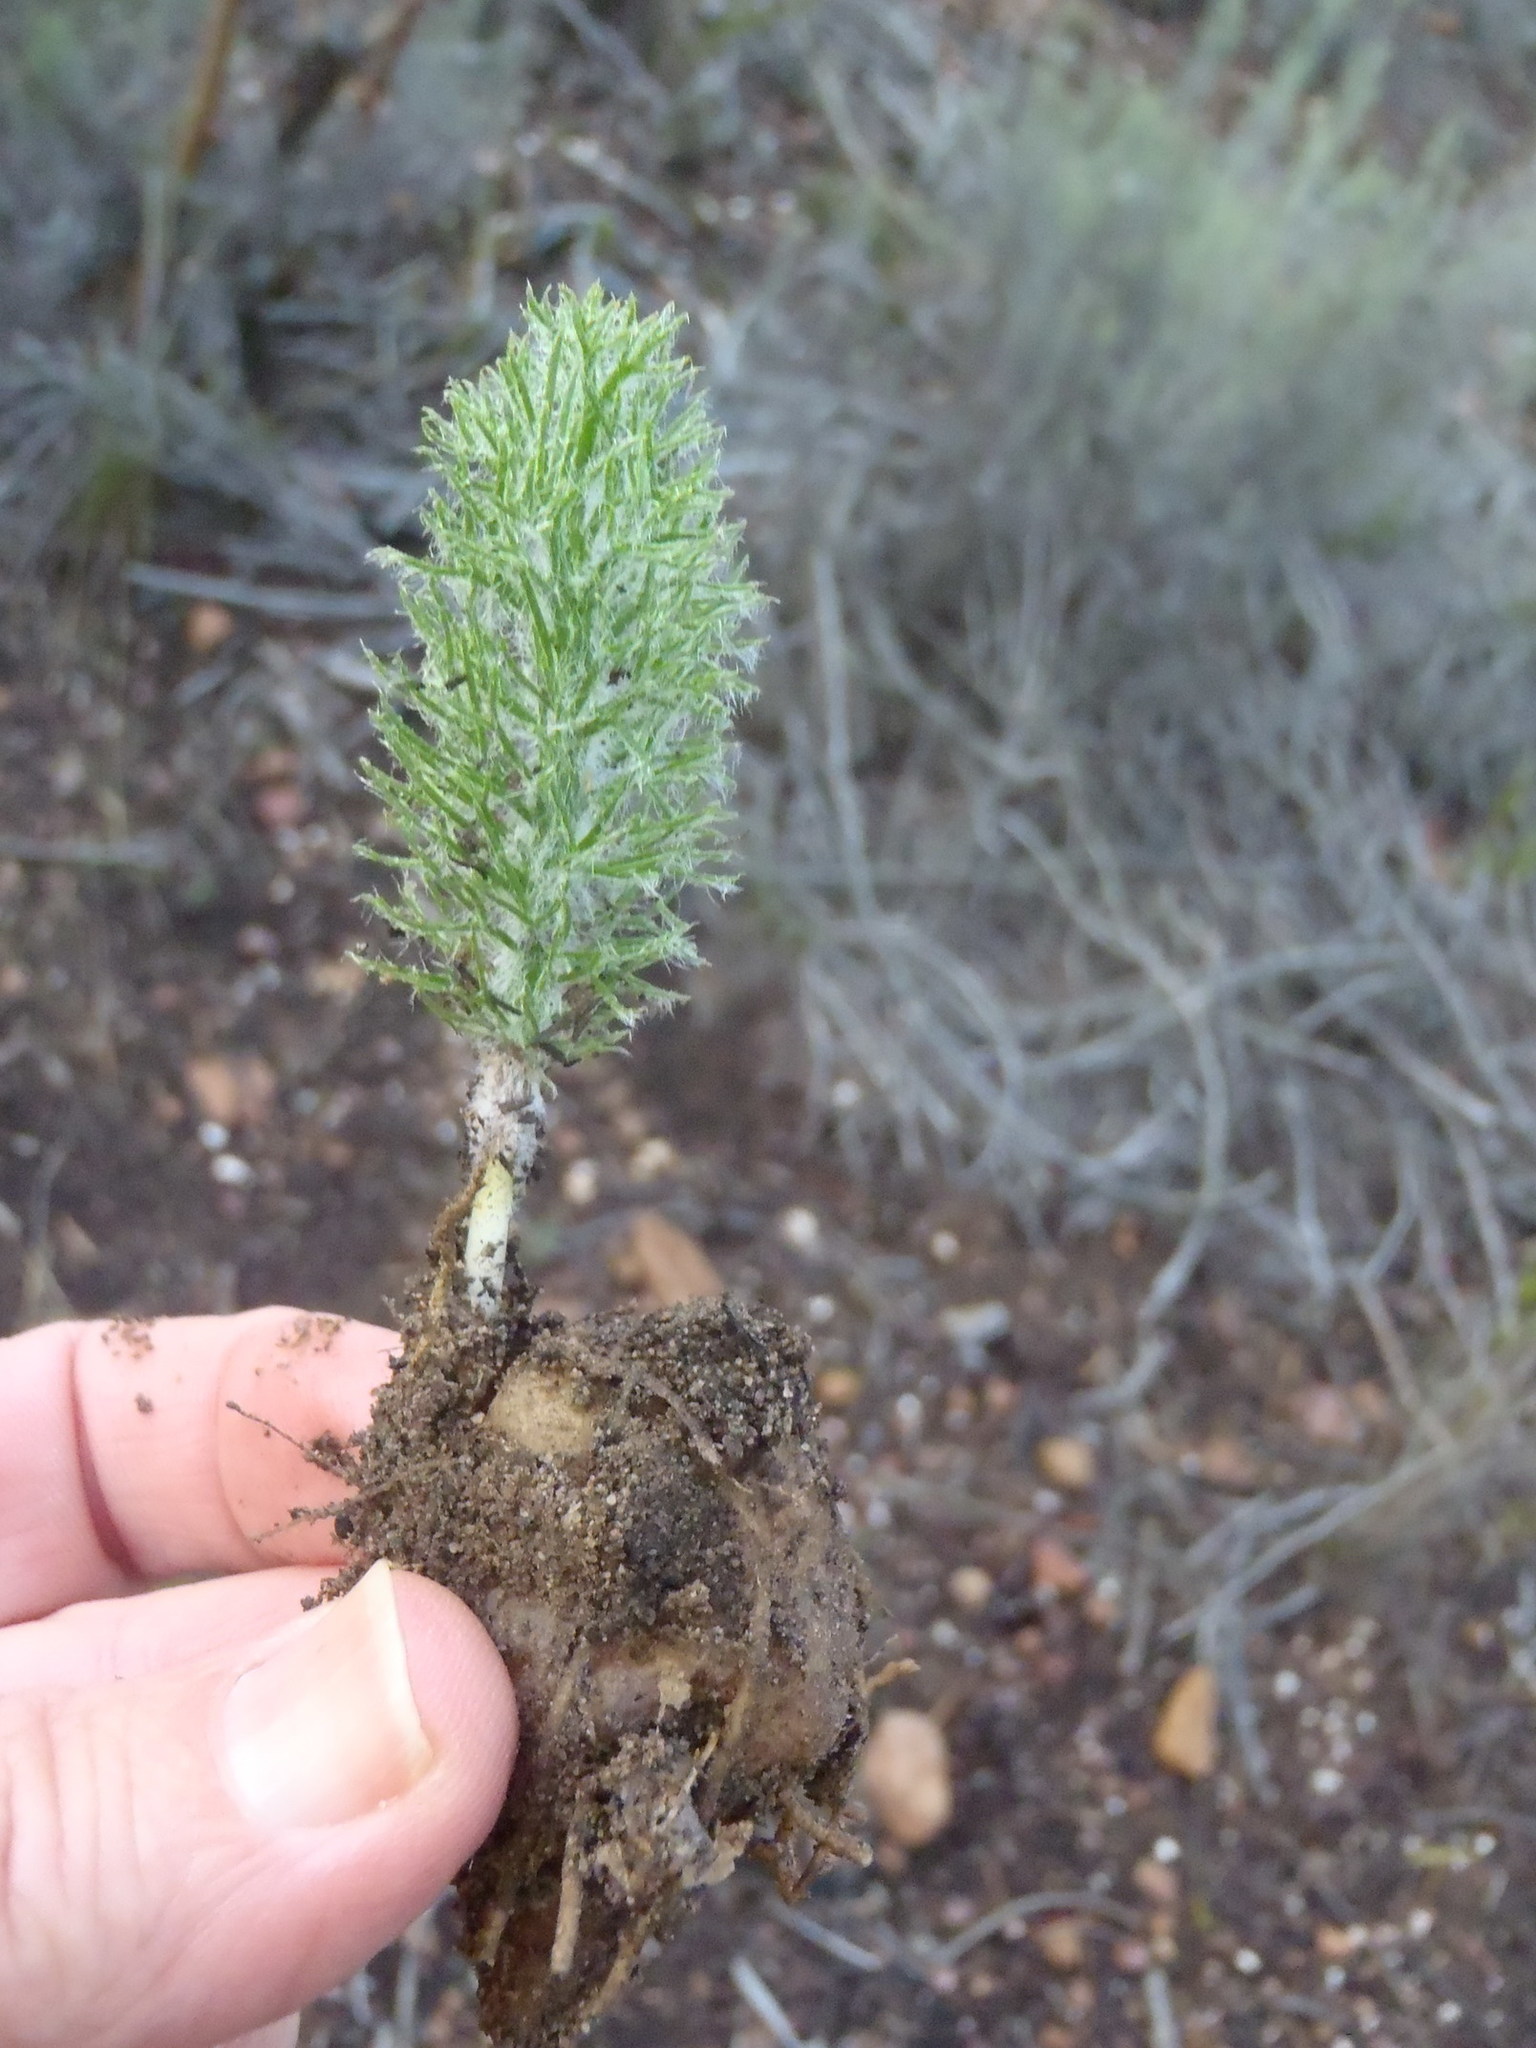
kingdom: Plantae
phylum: Tracheophyta
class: Liliopsida
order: Asparagales
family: Asparagaceae
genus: Eriospermum
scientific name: Eriospermum paradoxum
